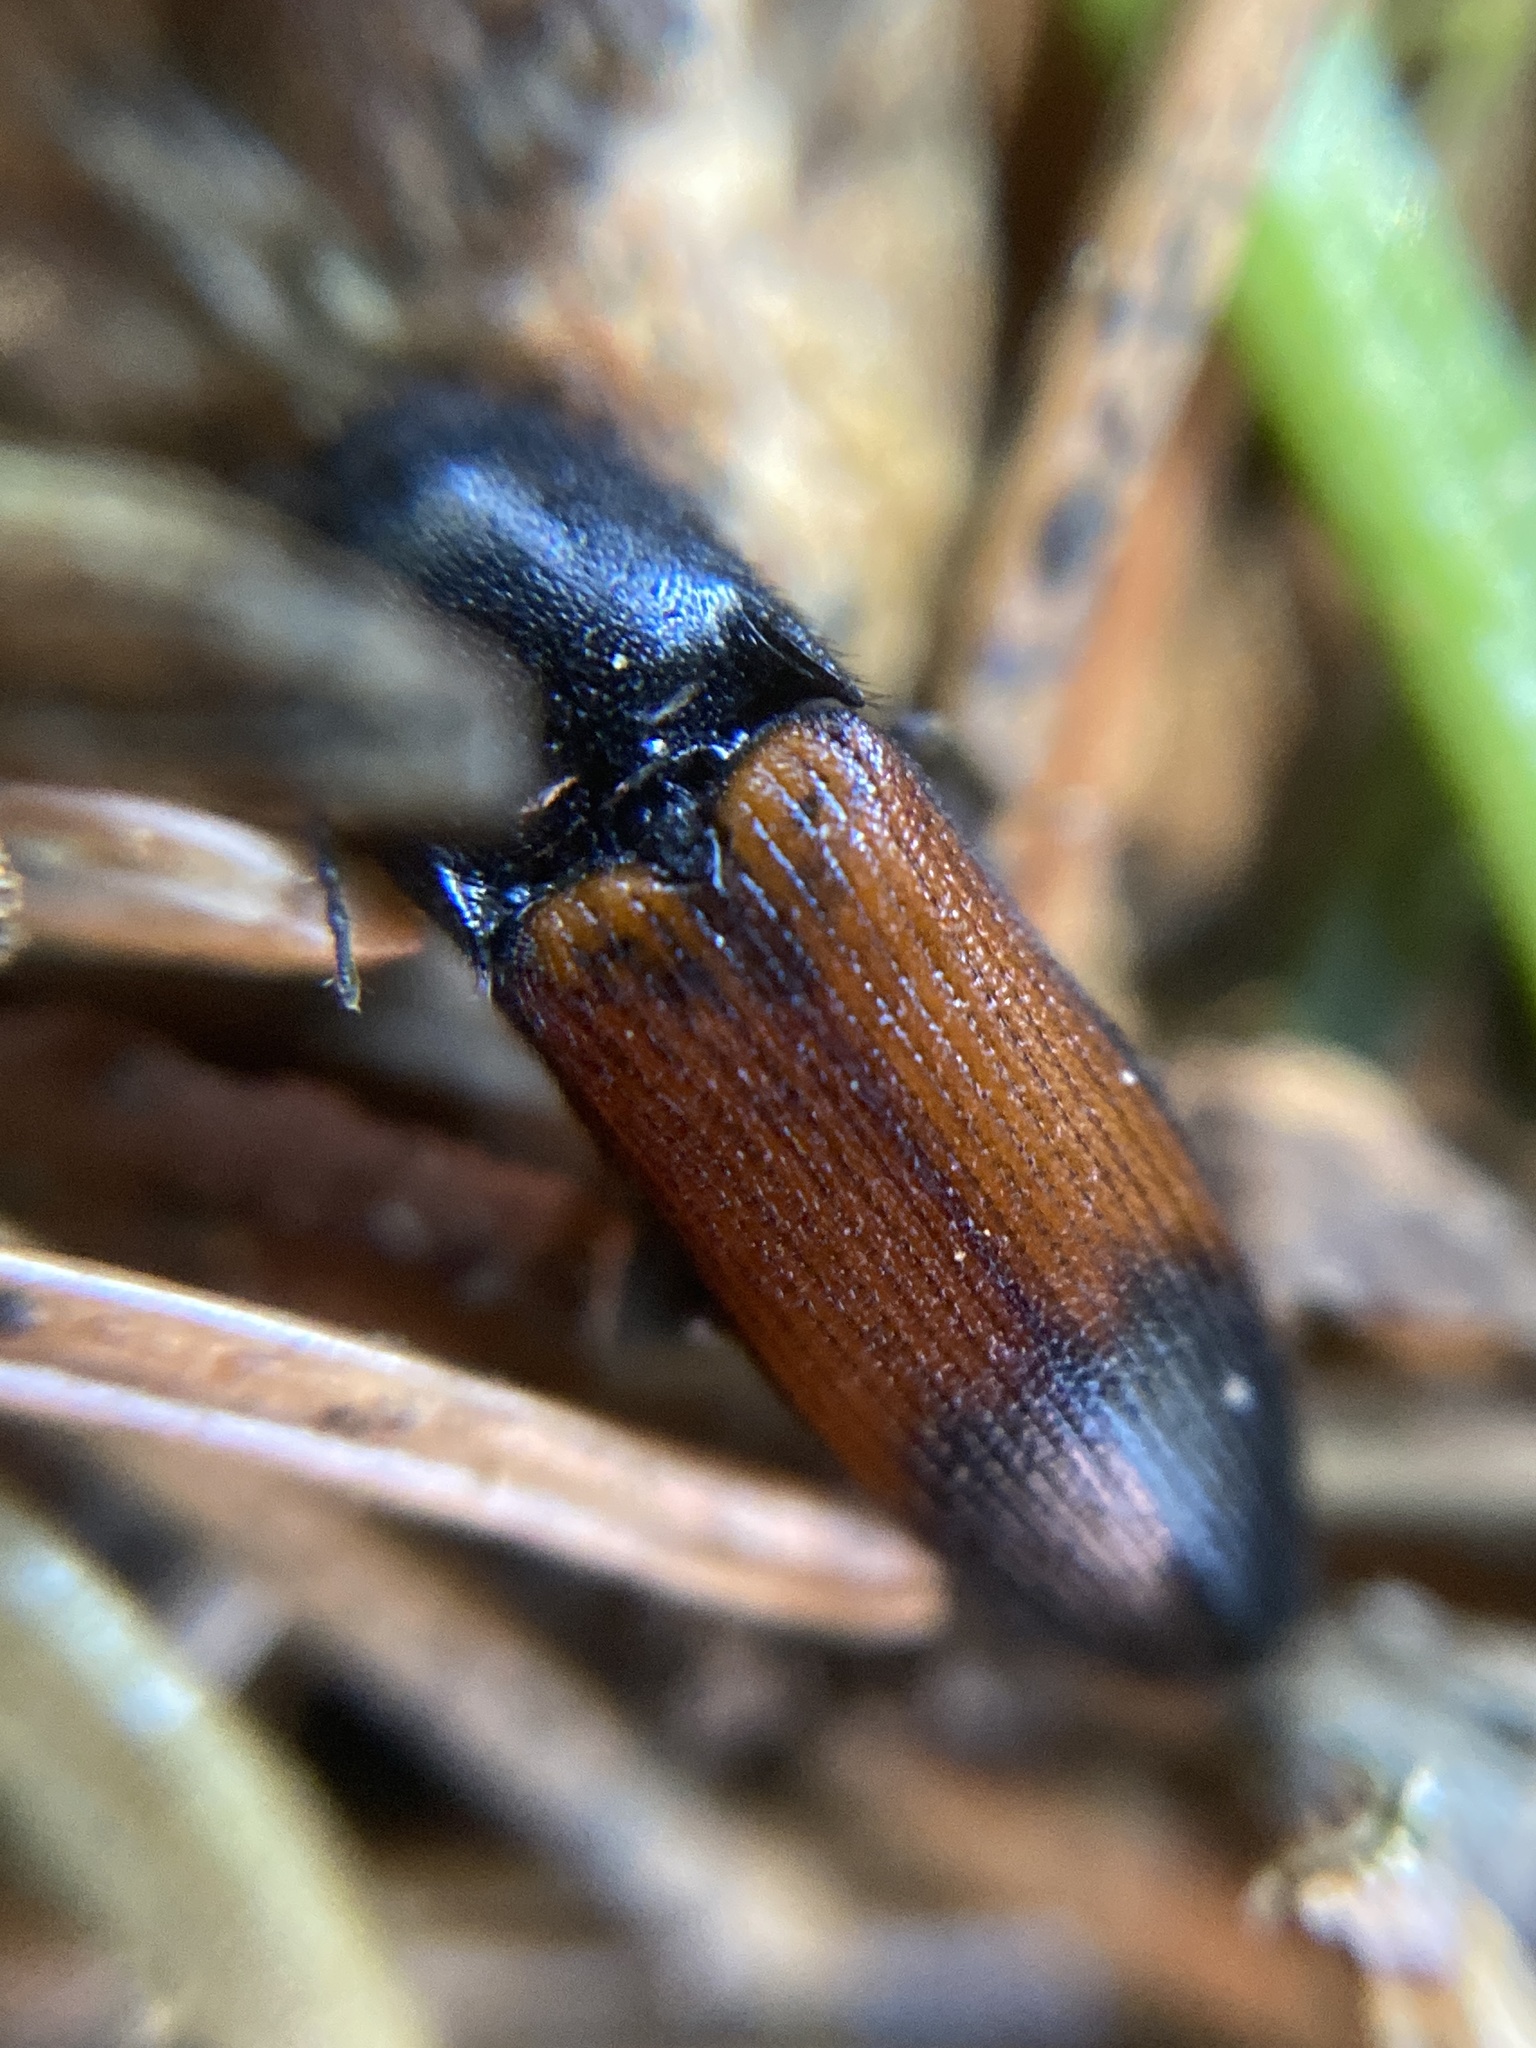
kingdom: Animalia
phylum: Arthropoda
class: Insecta
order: Coleoptera
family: Elateridae
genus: Ampedus
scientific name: Ampedus balteatus
